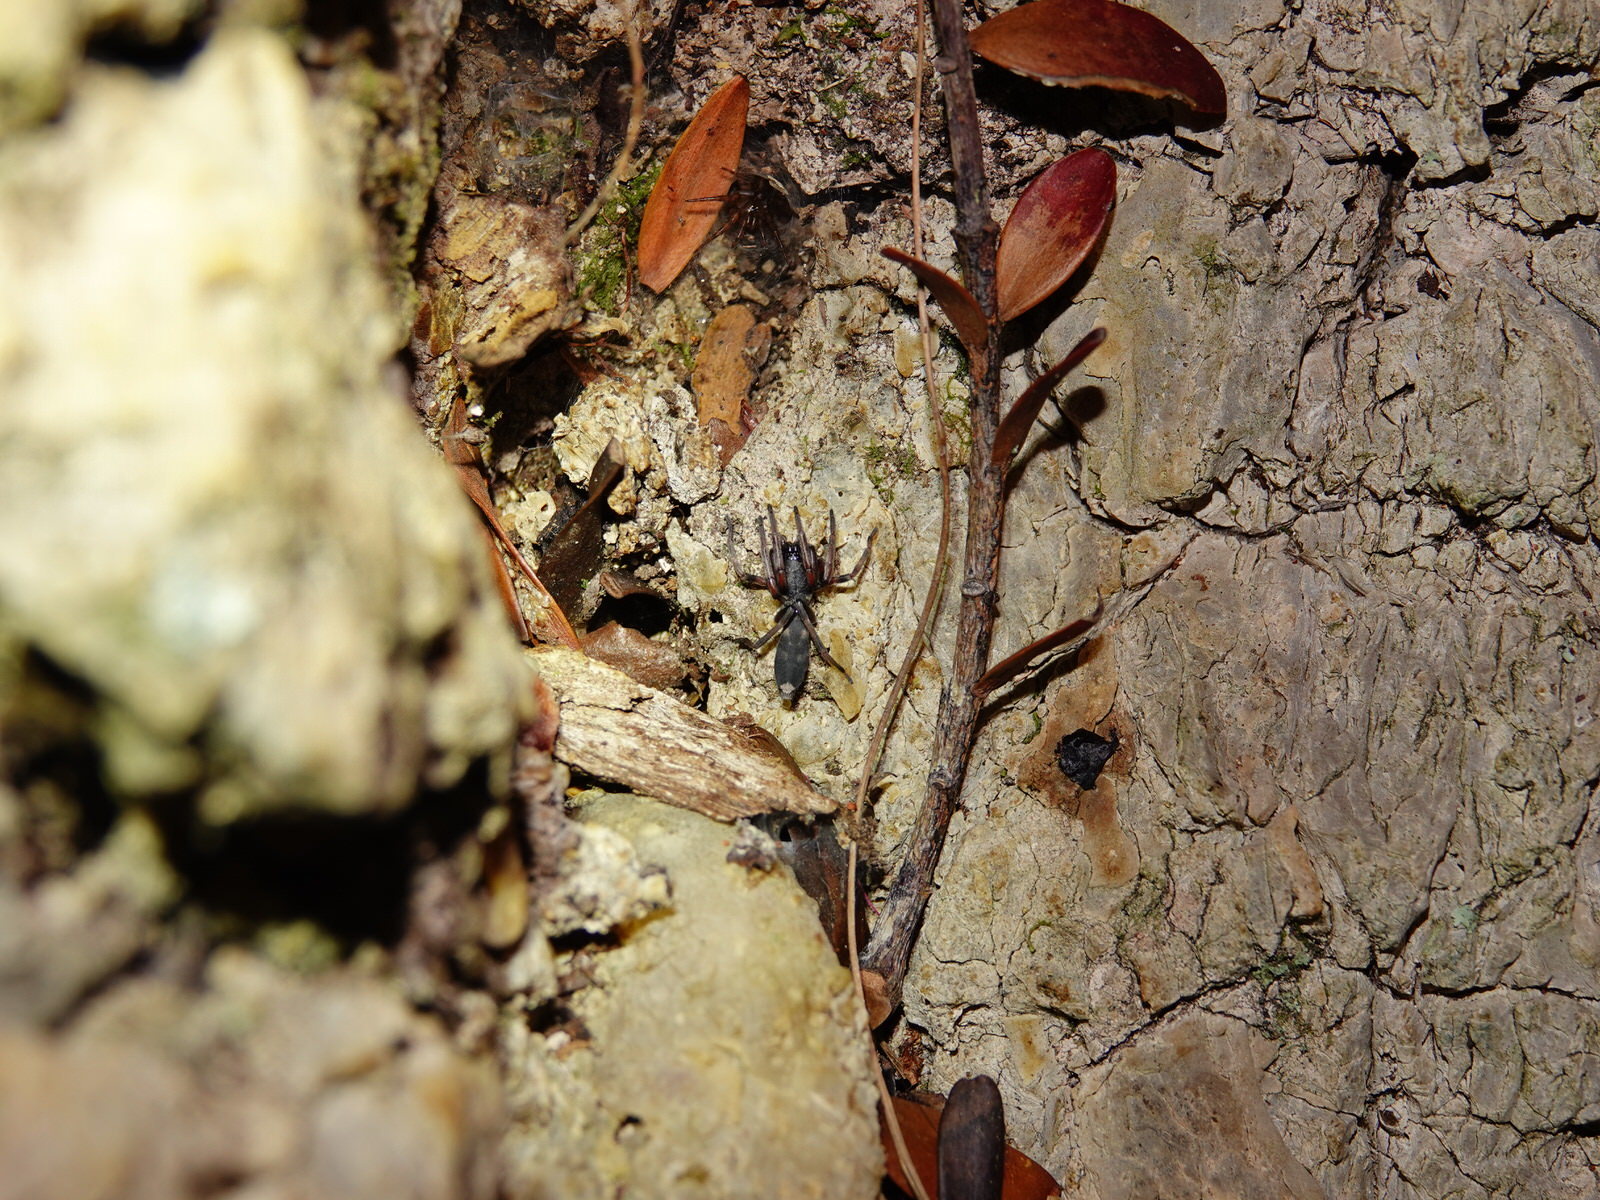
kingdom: Animalia
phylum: Arthropoda
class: Arachnida
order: Araneae
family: Lamponidae
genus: Lampona
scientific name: Lampona murina
